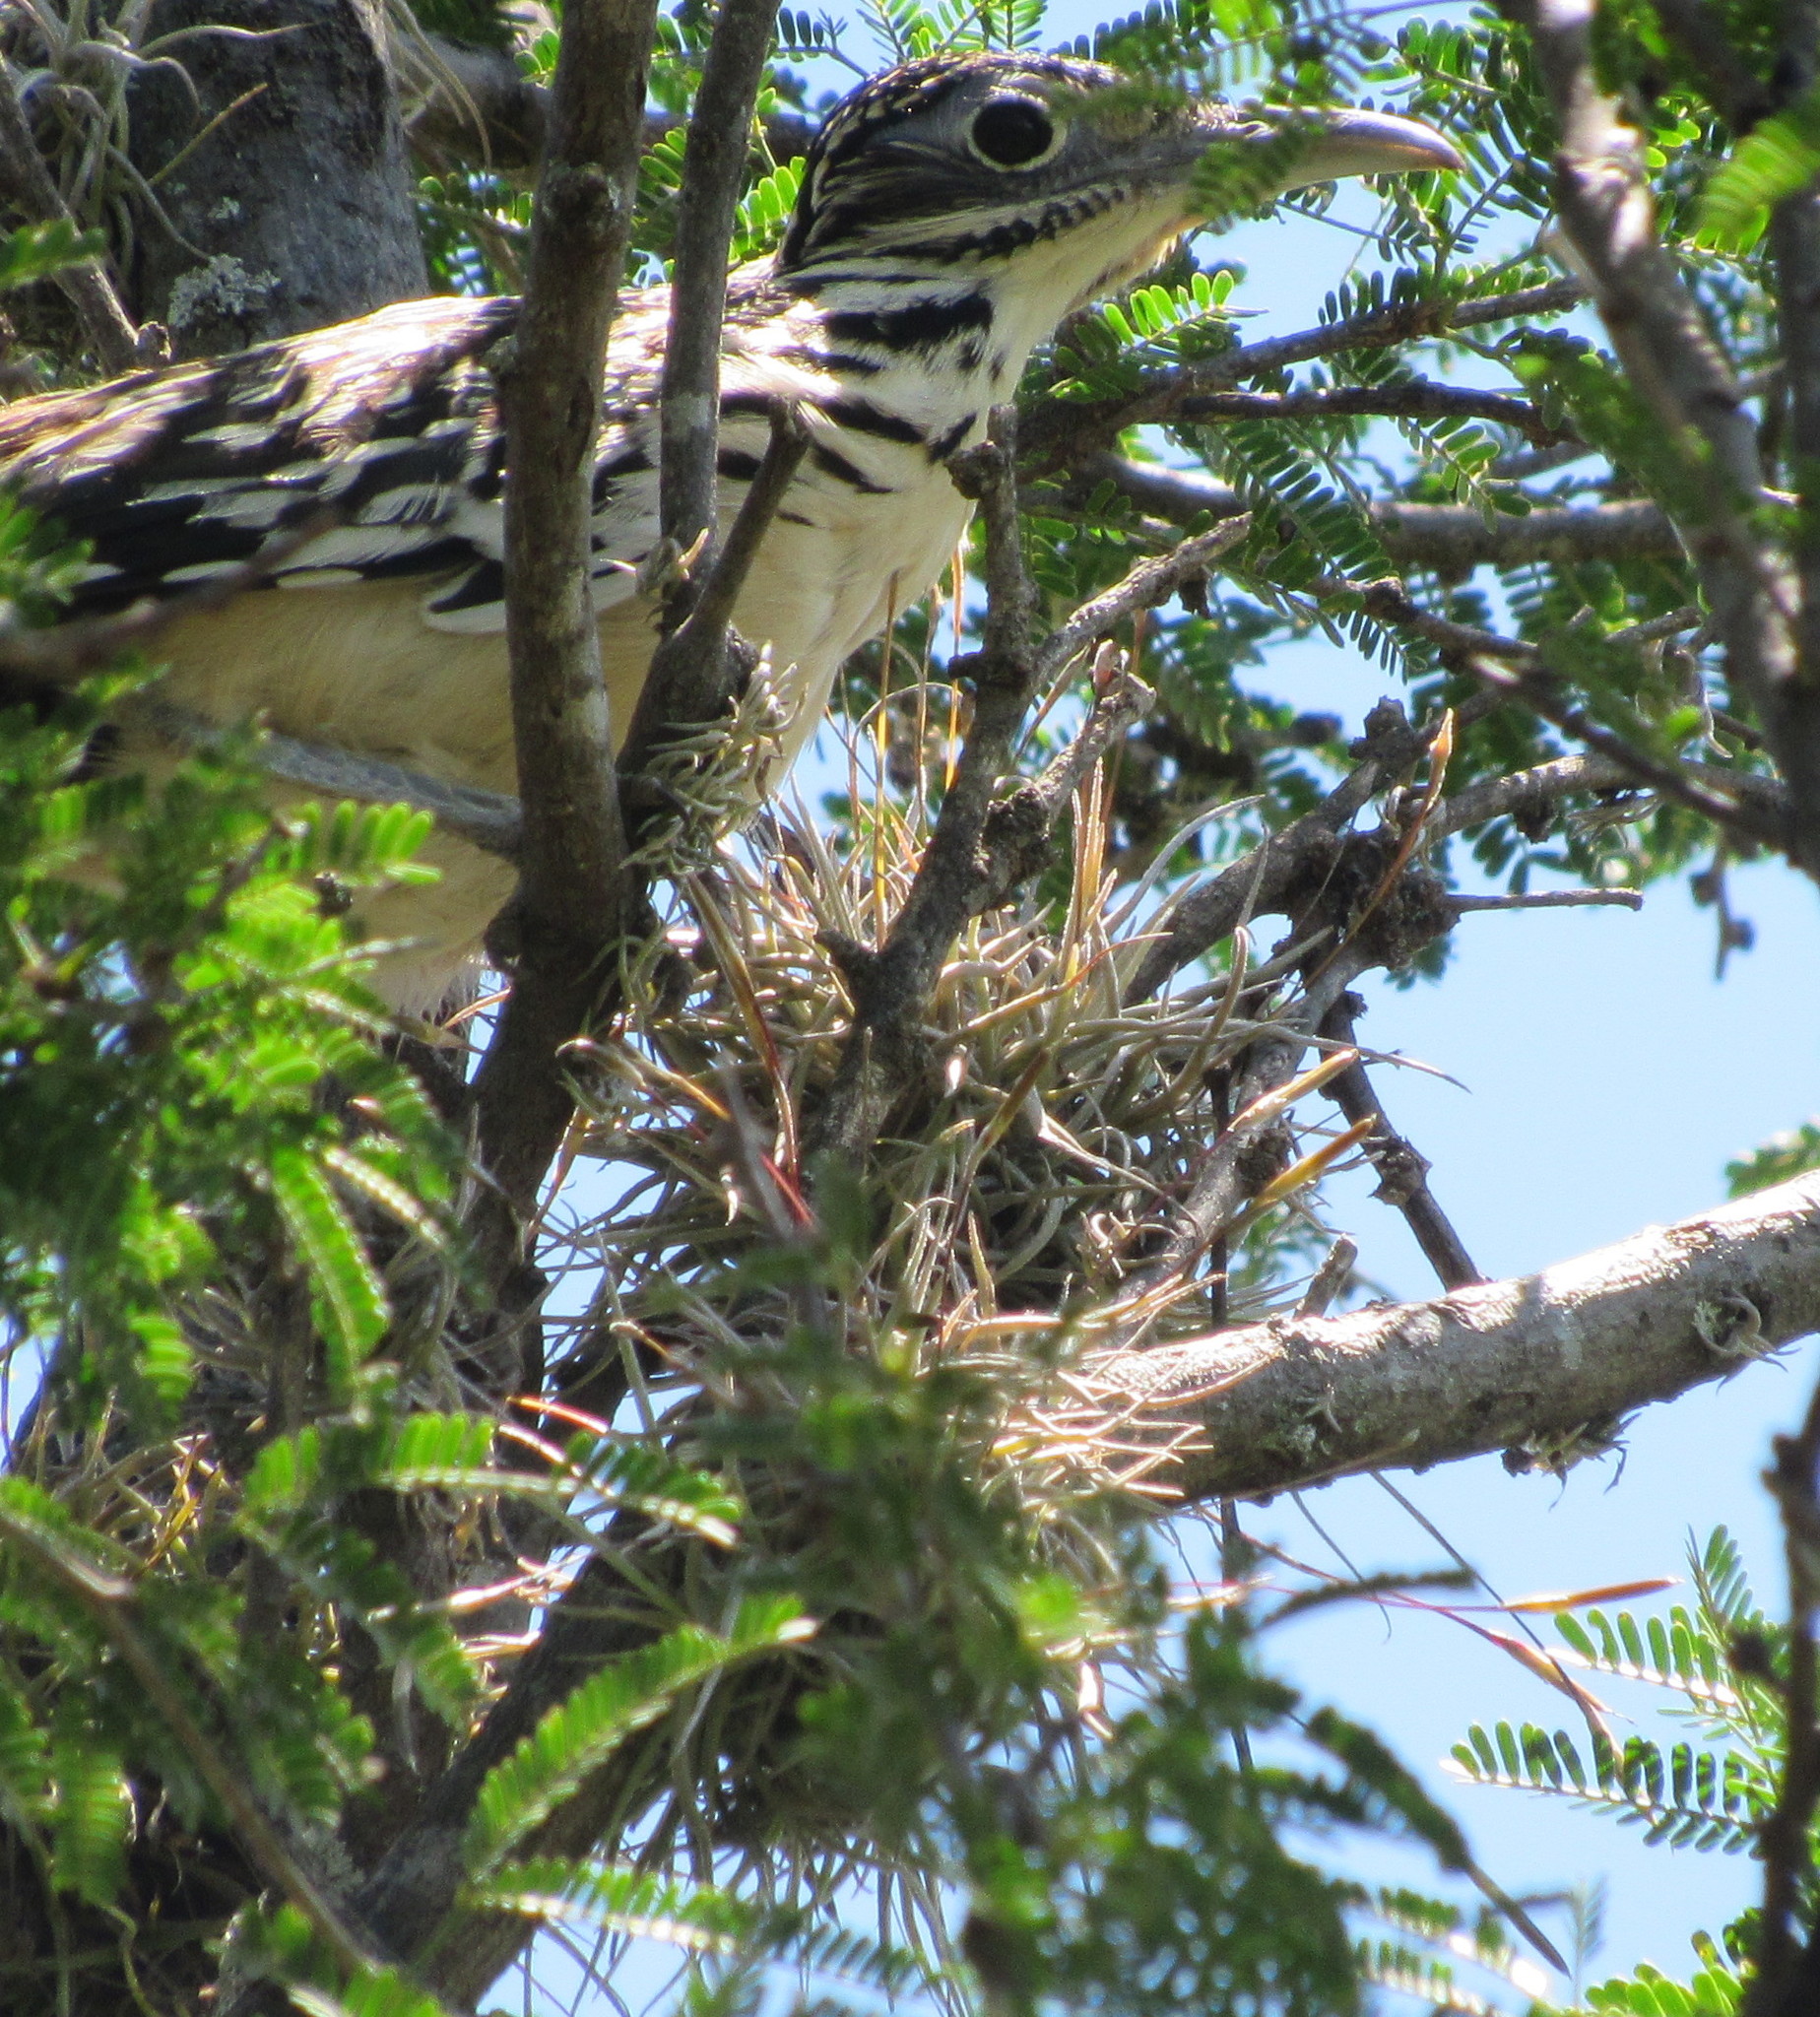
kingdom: Plantae
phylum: Tracheophyta
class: Liliopsida
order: Poales
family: Bromeliaceae
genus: Tillandsia
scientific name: Tillandsia recurvata
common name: Small ballmoss
